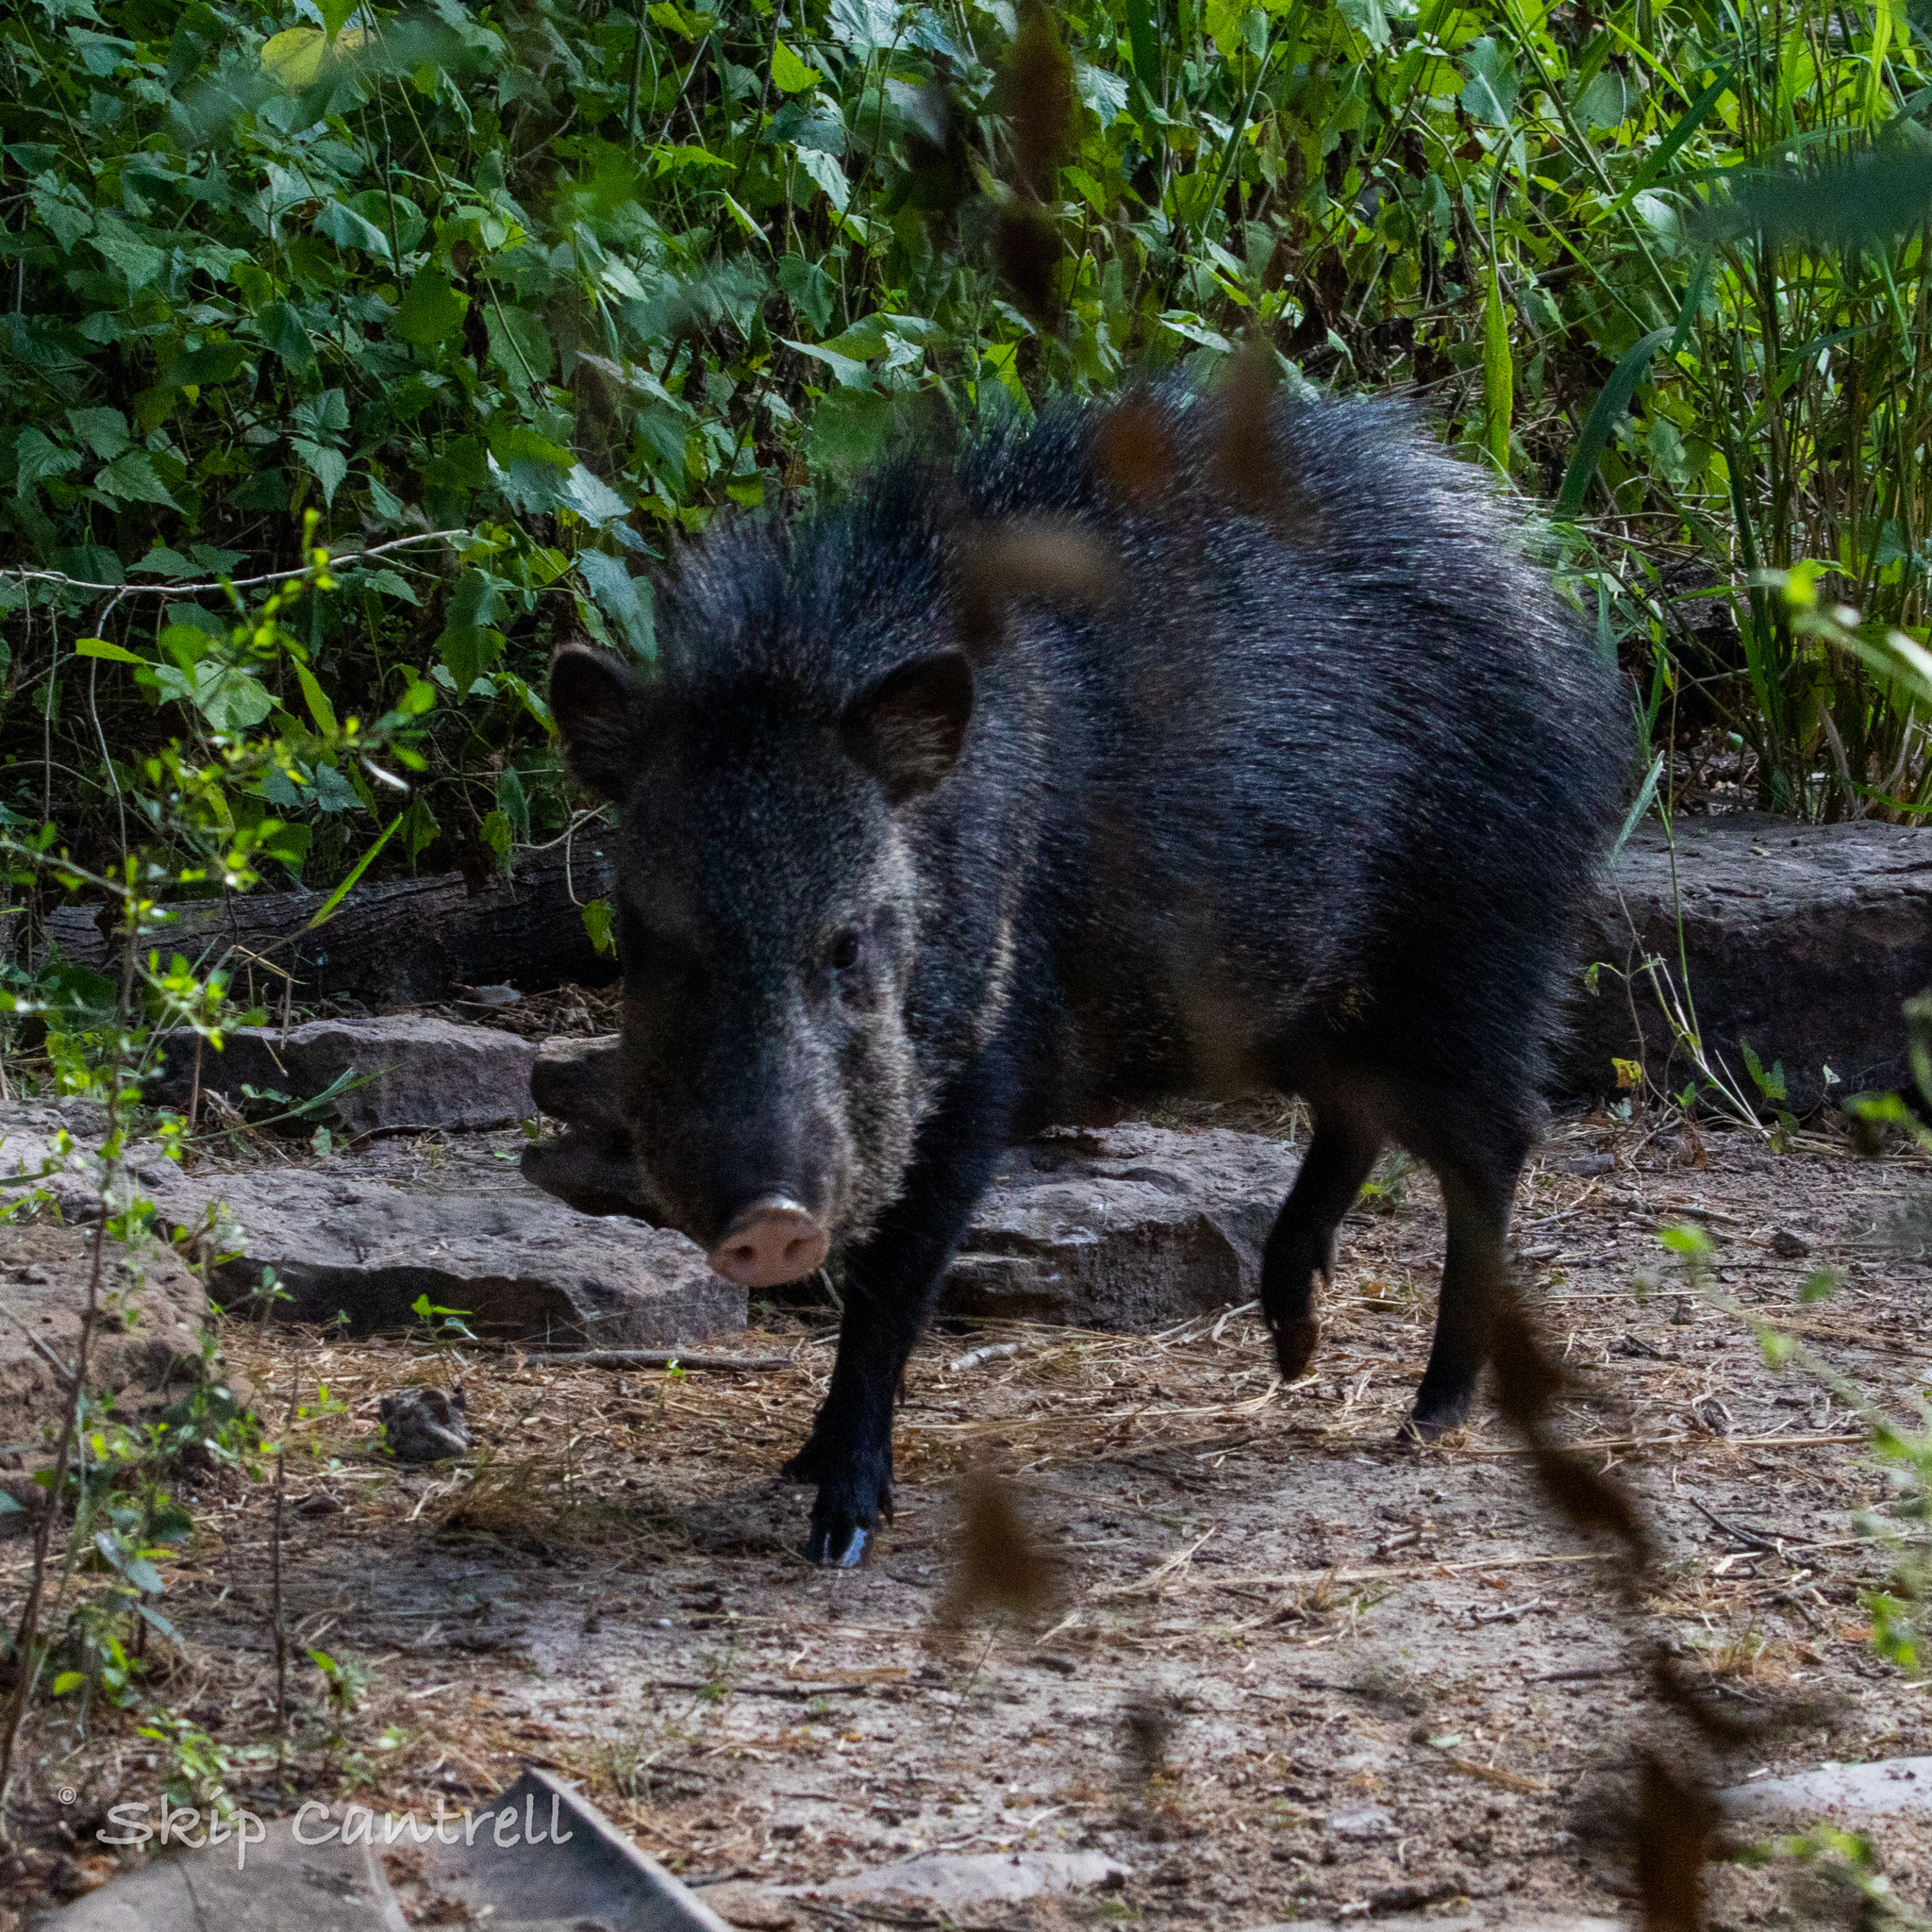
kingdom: Animalia
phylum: Chordata
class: Mammalia
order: Artiodactyla
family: Tayassuidae
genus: Pecari
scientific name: Pecari tajacu
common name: Collared peccary
